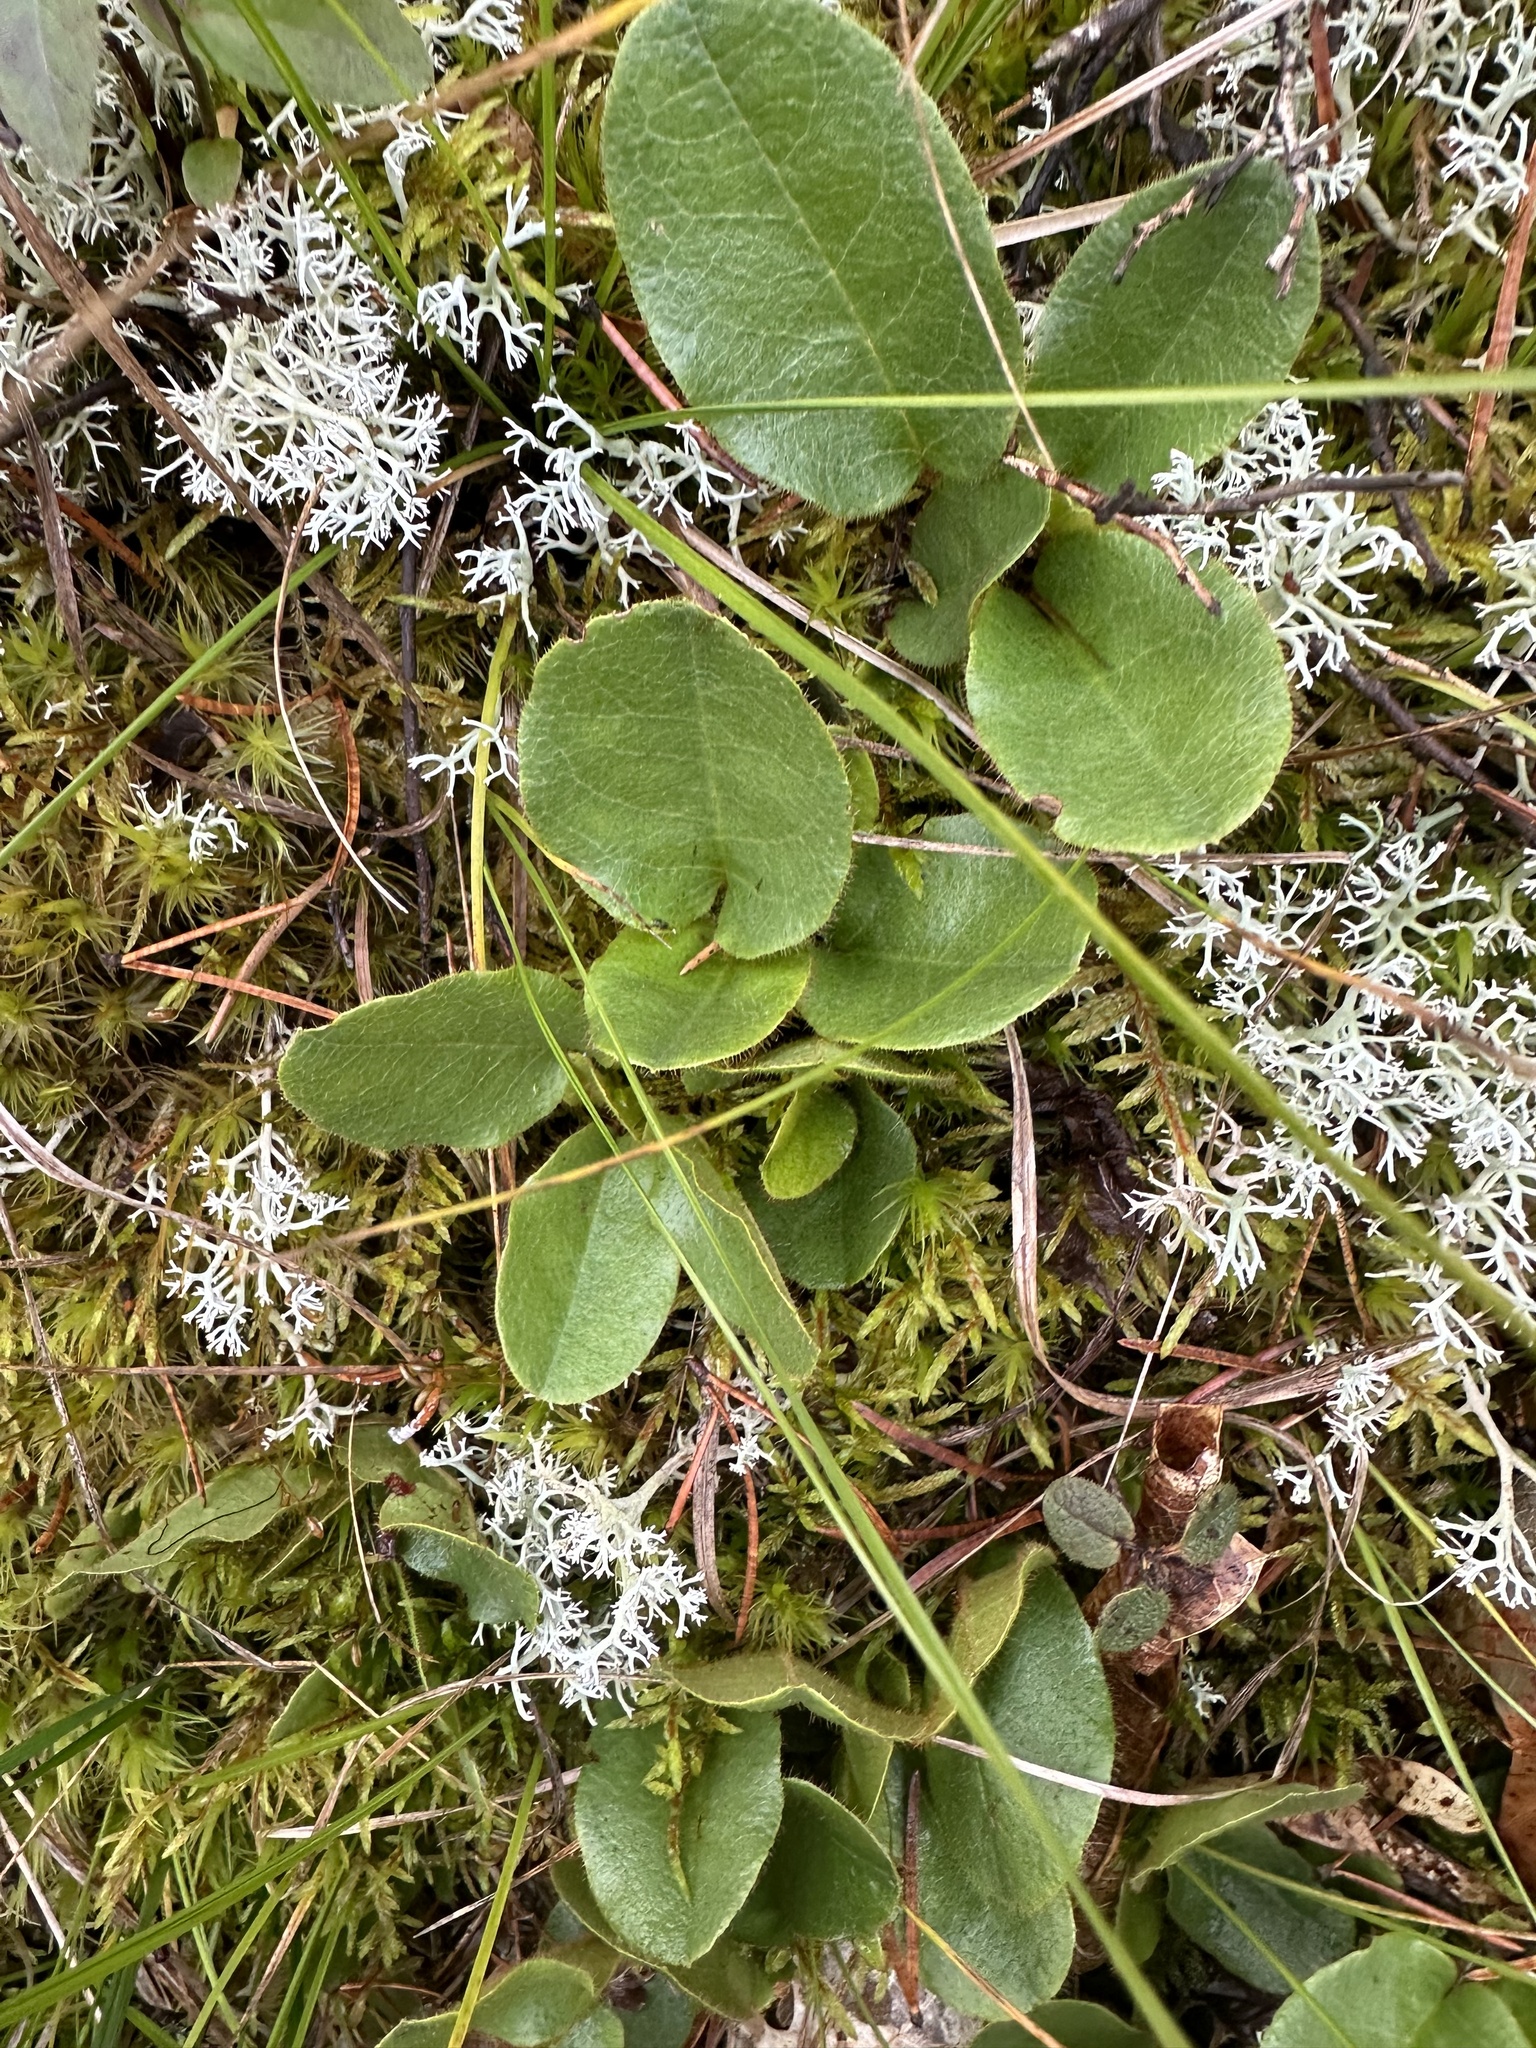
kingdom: Plantae
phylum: Tracheophyta
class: Magnoliopsida
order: Ericales
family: Ericaceae
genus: Epigaea
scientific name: Epigaea repens
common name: Gravelroot
